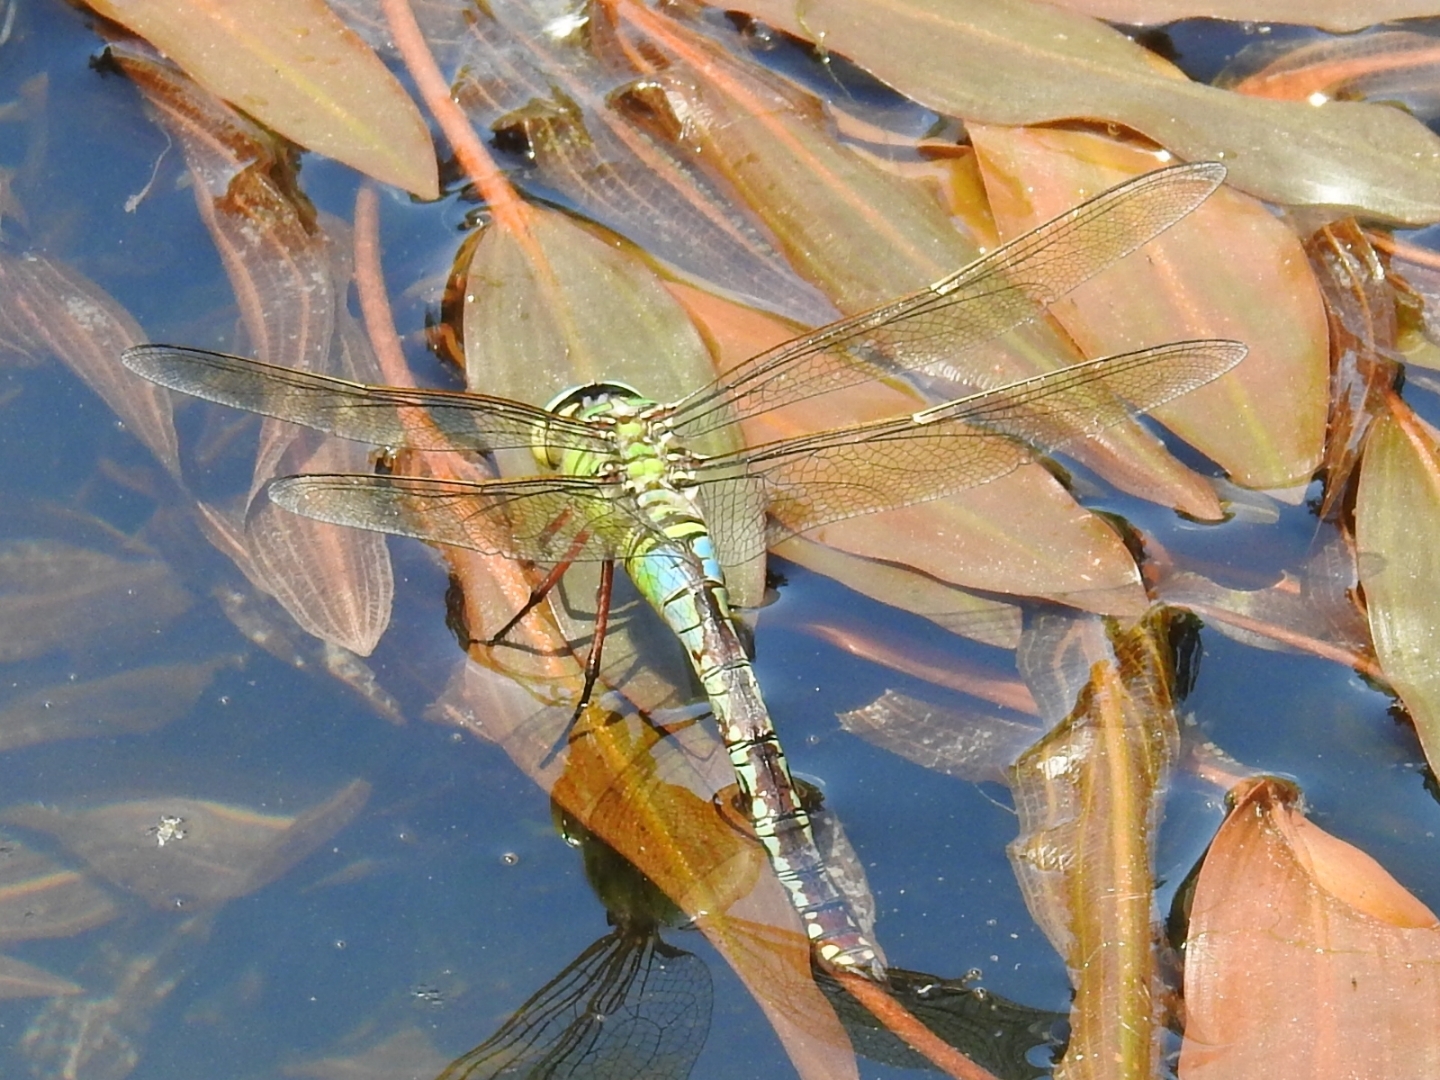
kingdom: Animalia
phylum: Arthropoda
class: Insecta
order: Odonata
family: Aeshnidae
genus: Anax
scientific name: Anax imperator
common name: Emperor dragonfly
